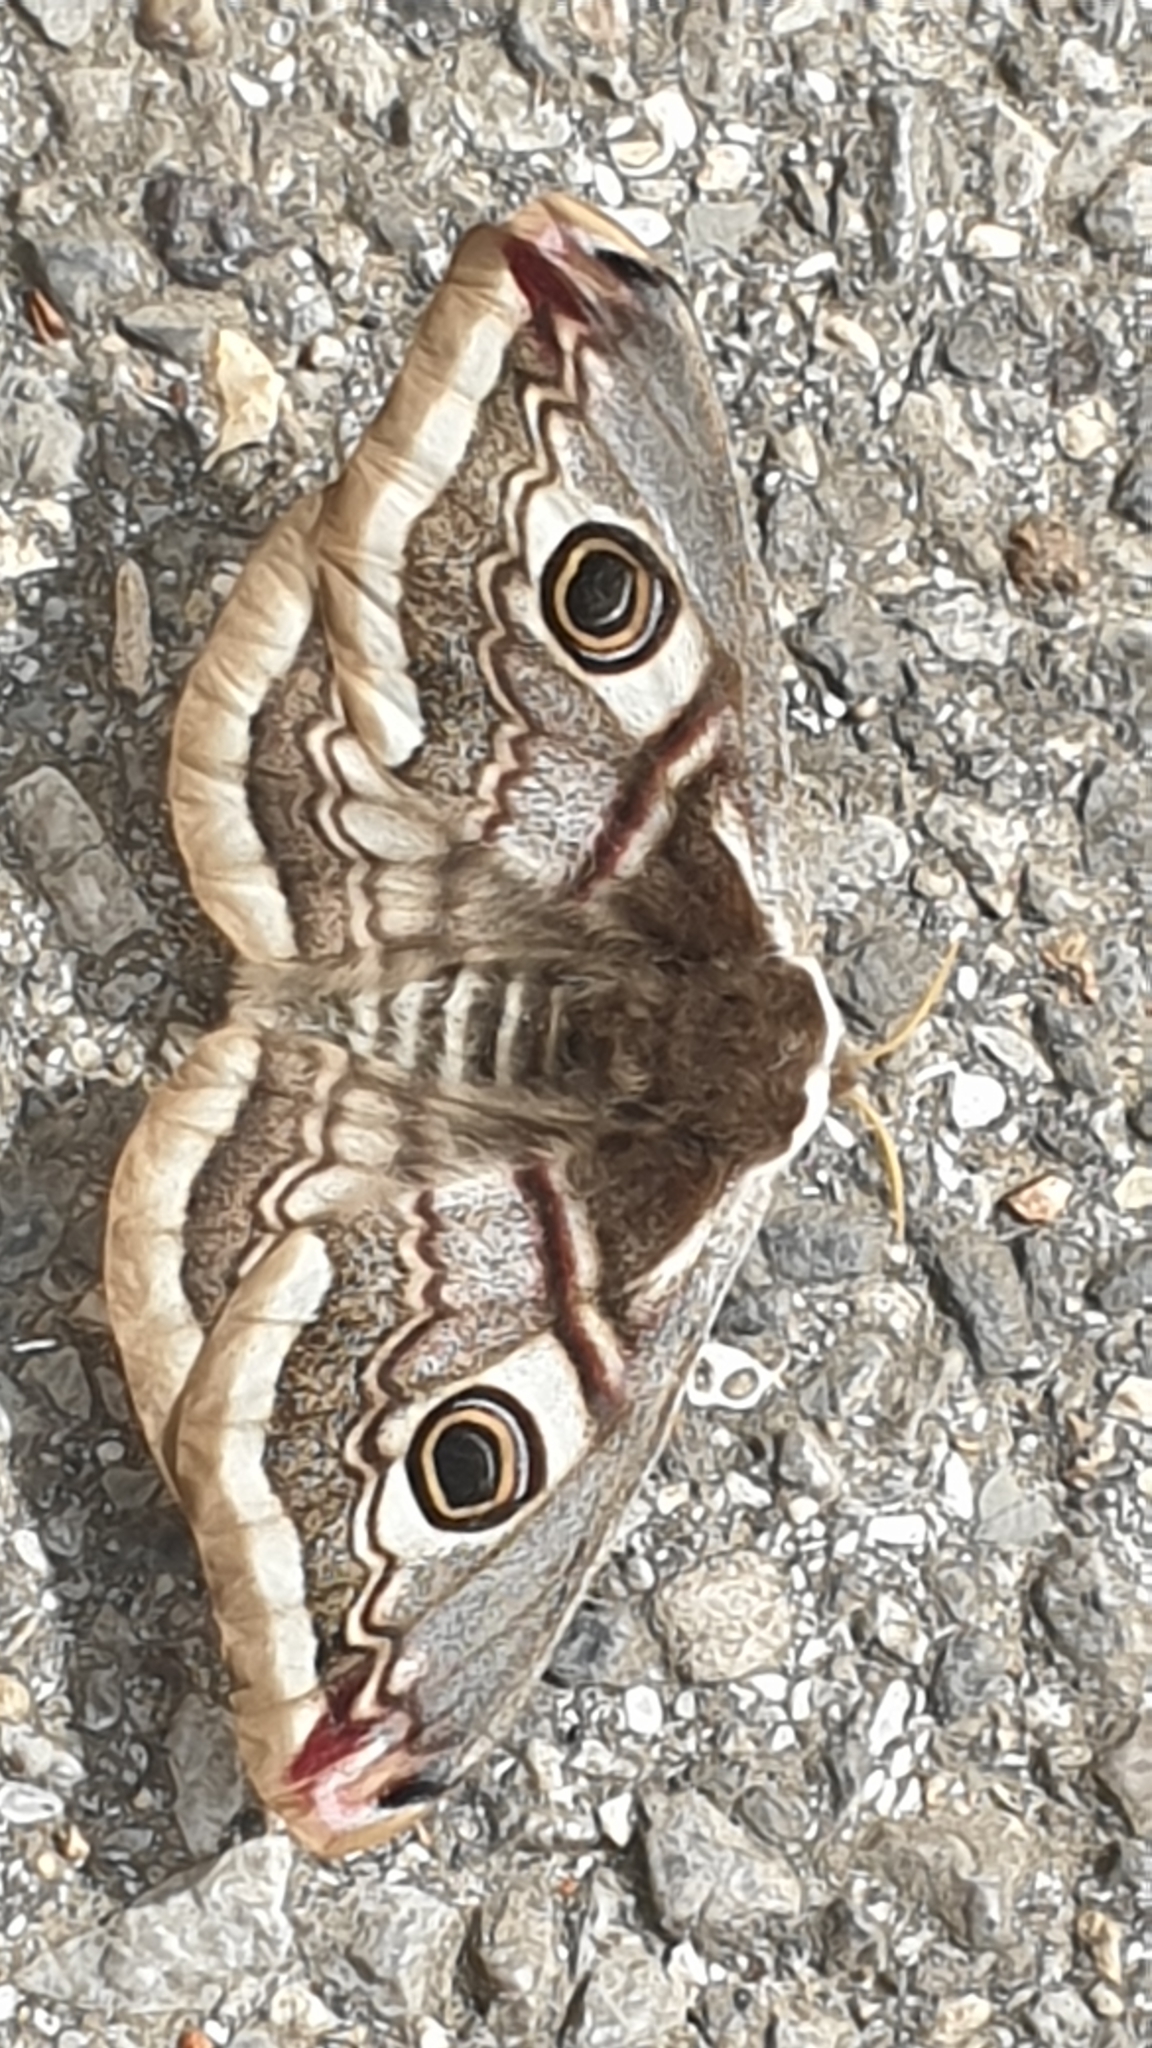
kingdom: Animalia
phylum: Arthropoda
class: Insecta
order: Lepidoptera
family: Saturniidae
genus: Saturnia
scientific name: Saturnia pavonia
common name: Emperor moth
